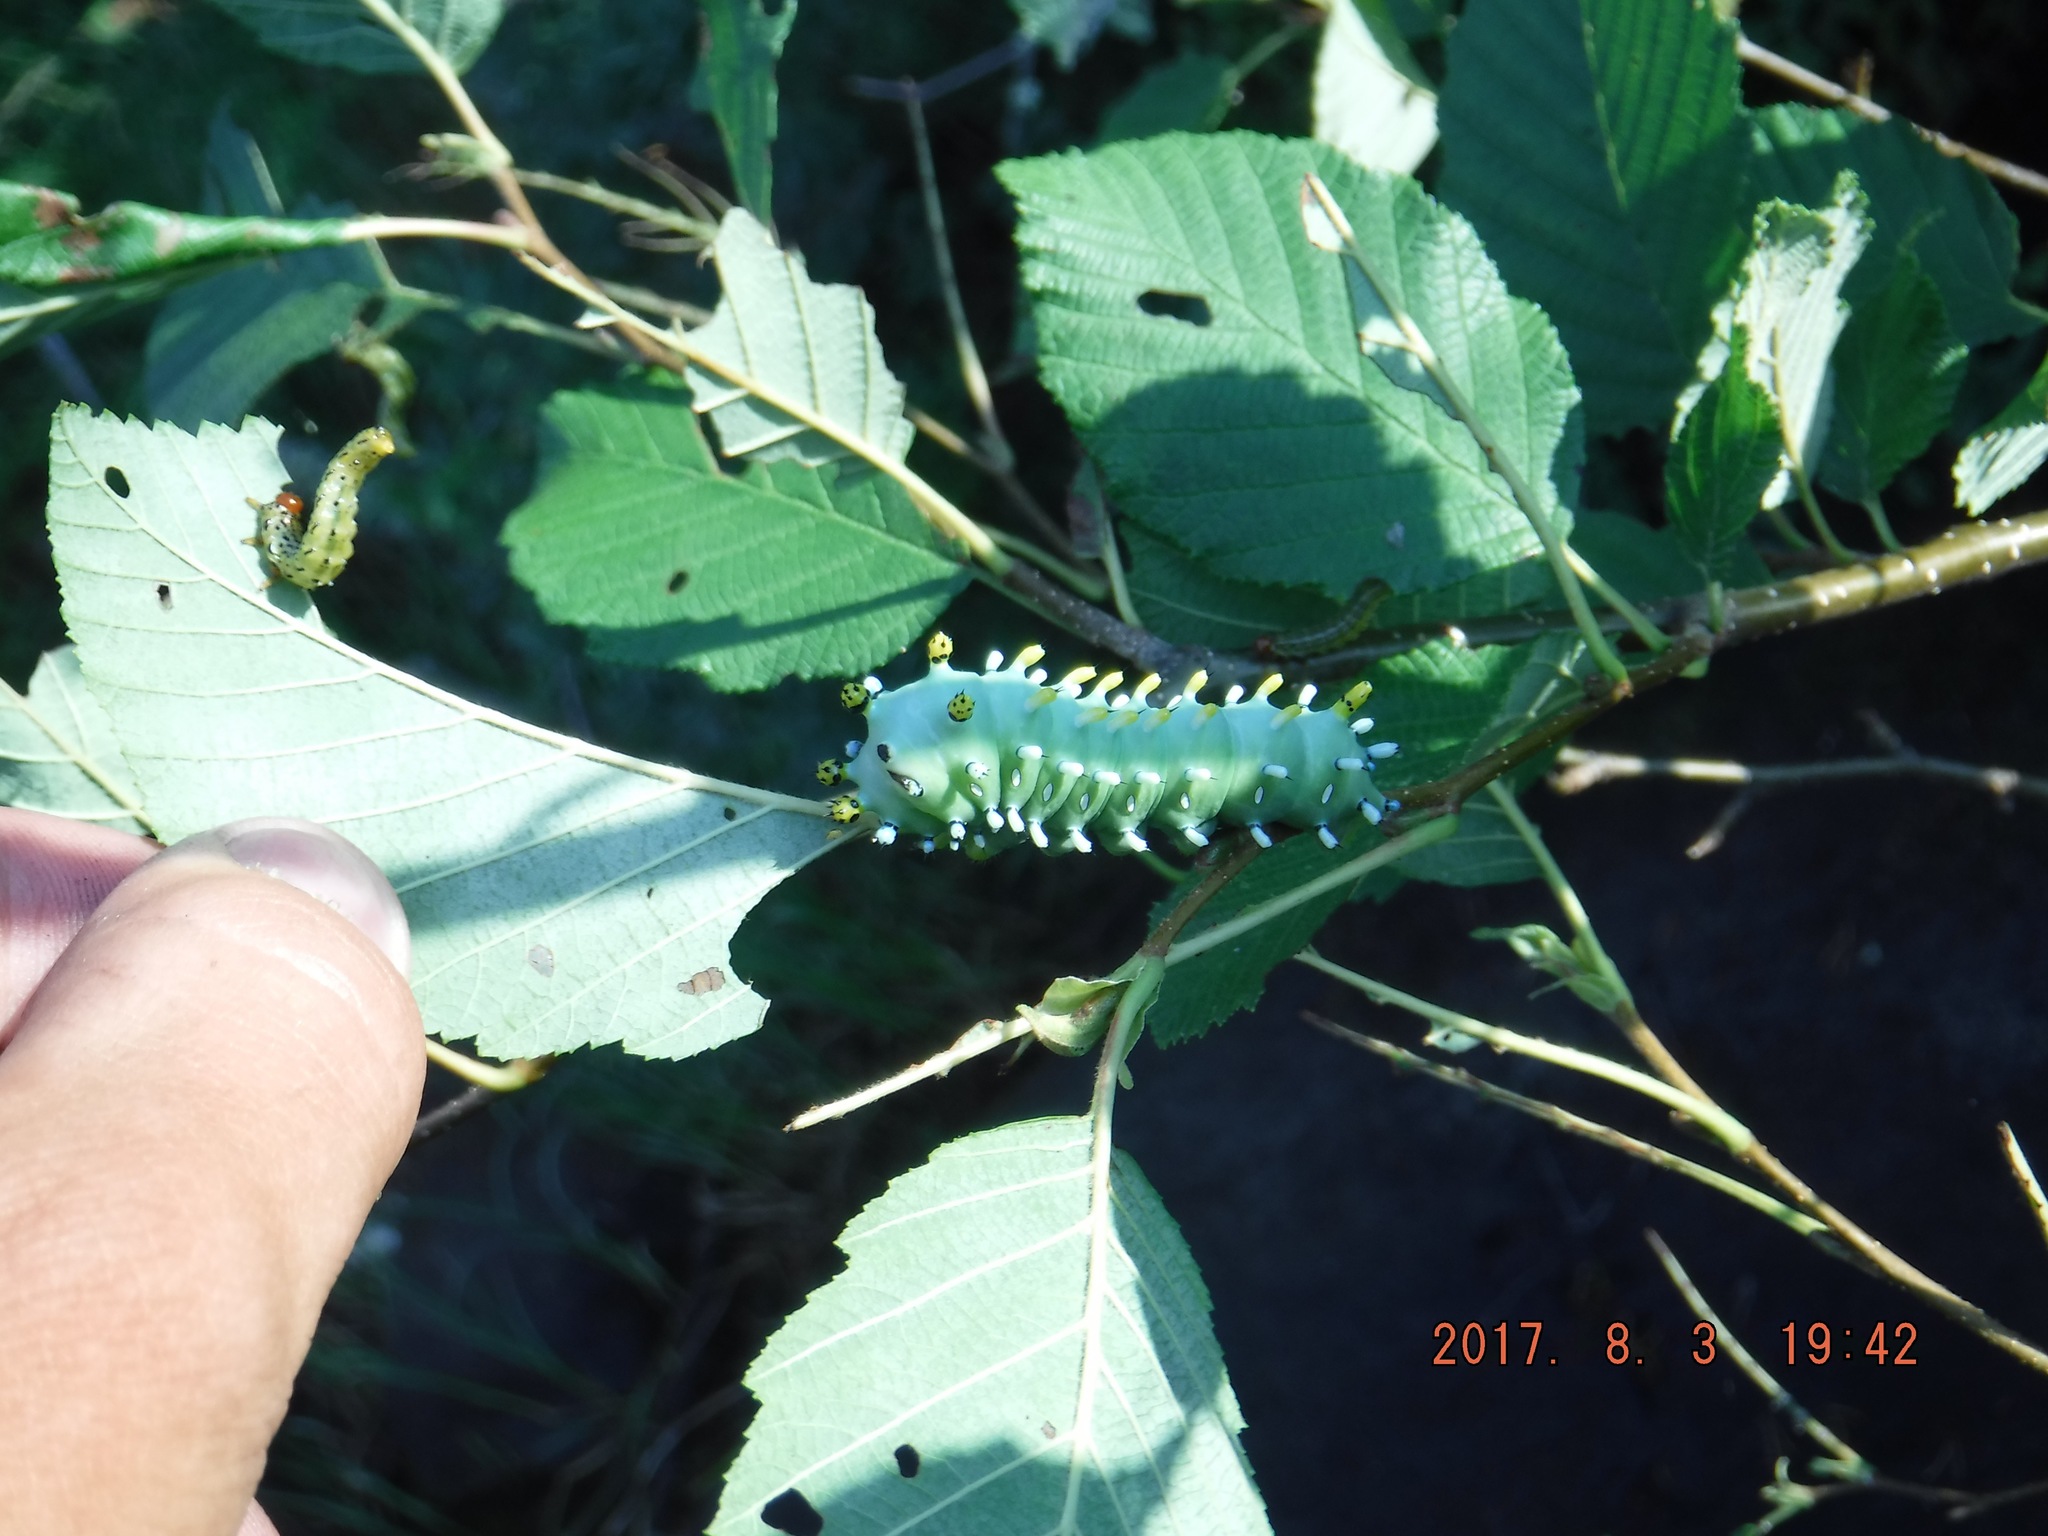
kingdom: Animalia
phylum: Arthropoda
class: Insecta
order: Lepidoptera
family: Saturniidae
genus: Hyalophora
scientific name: Hyalophora columbia
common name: Columbia silkmoth
